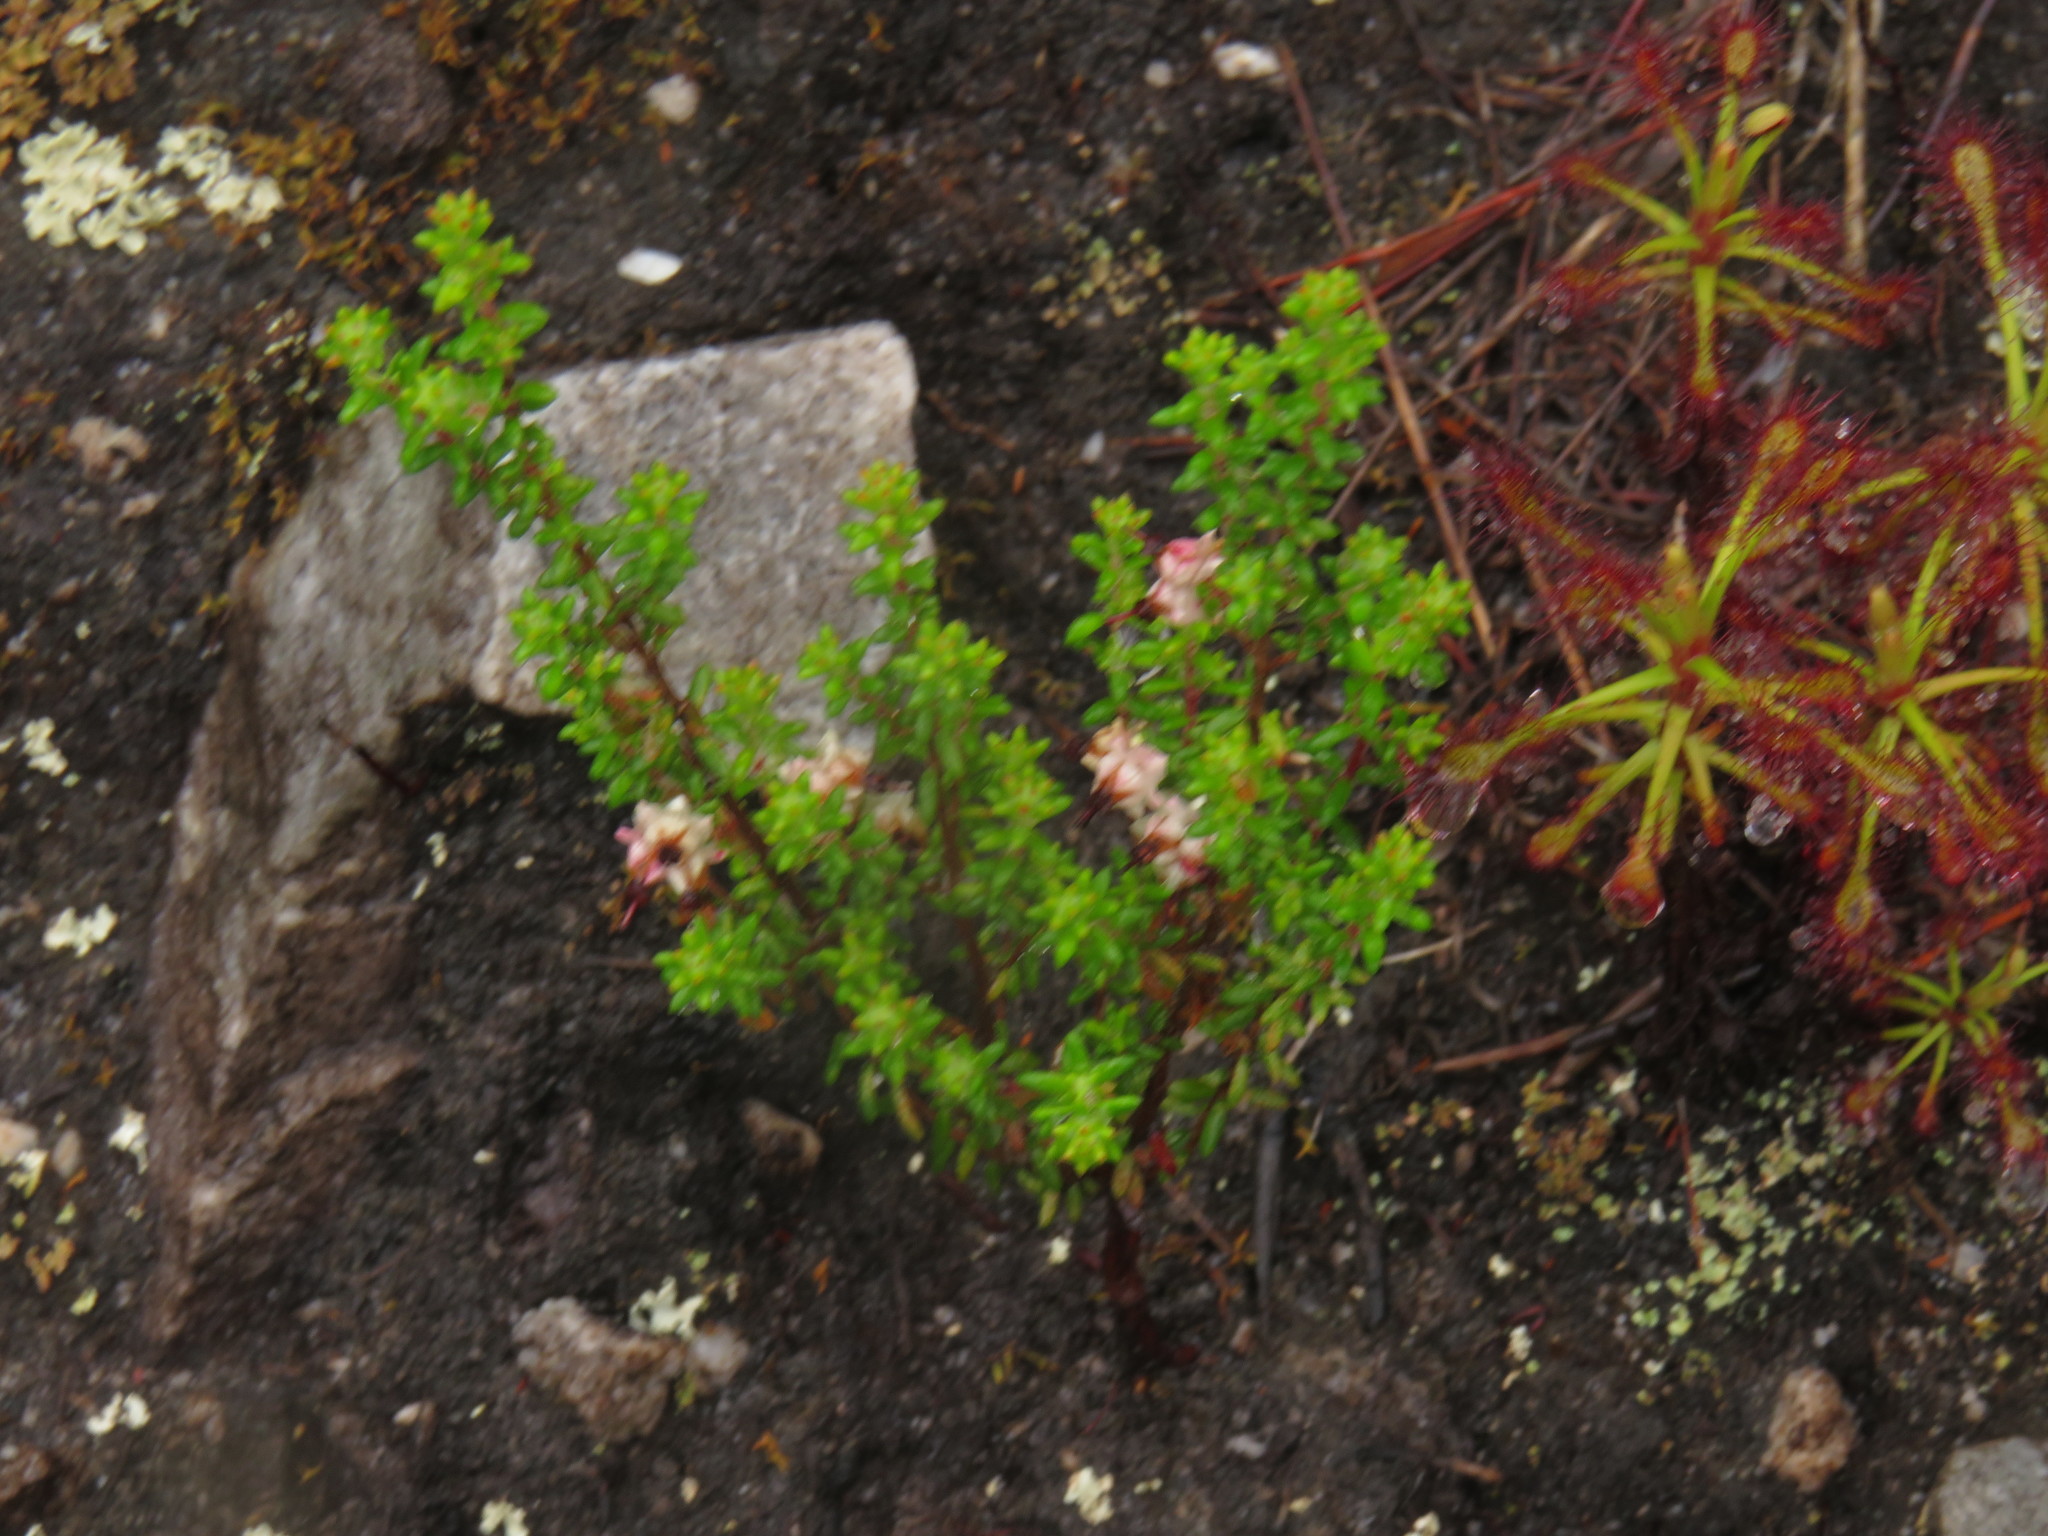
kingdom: Plantae
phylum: Tracheophyta
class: Magnoliopsida
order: Caryophyllales
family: Droseraceae
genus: Drosera
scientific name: Drosera glabripes
